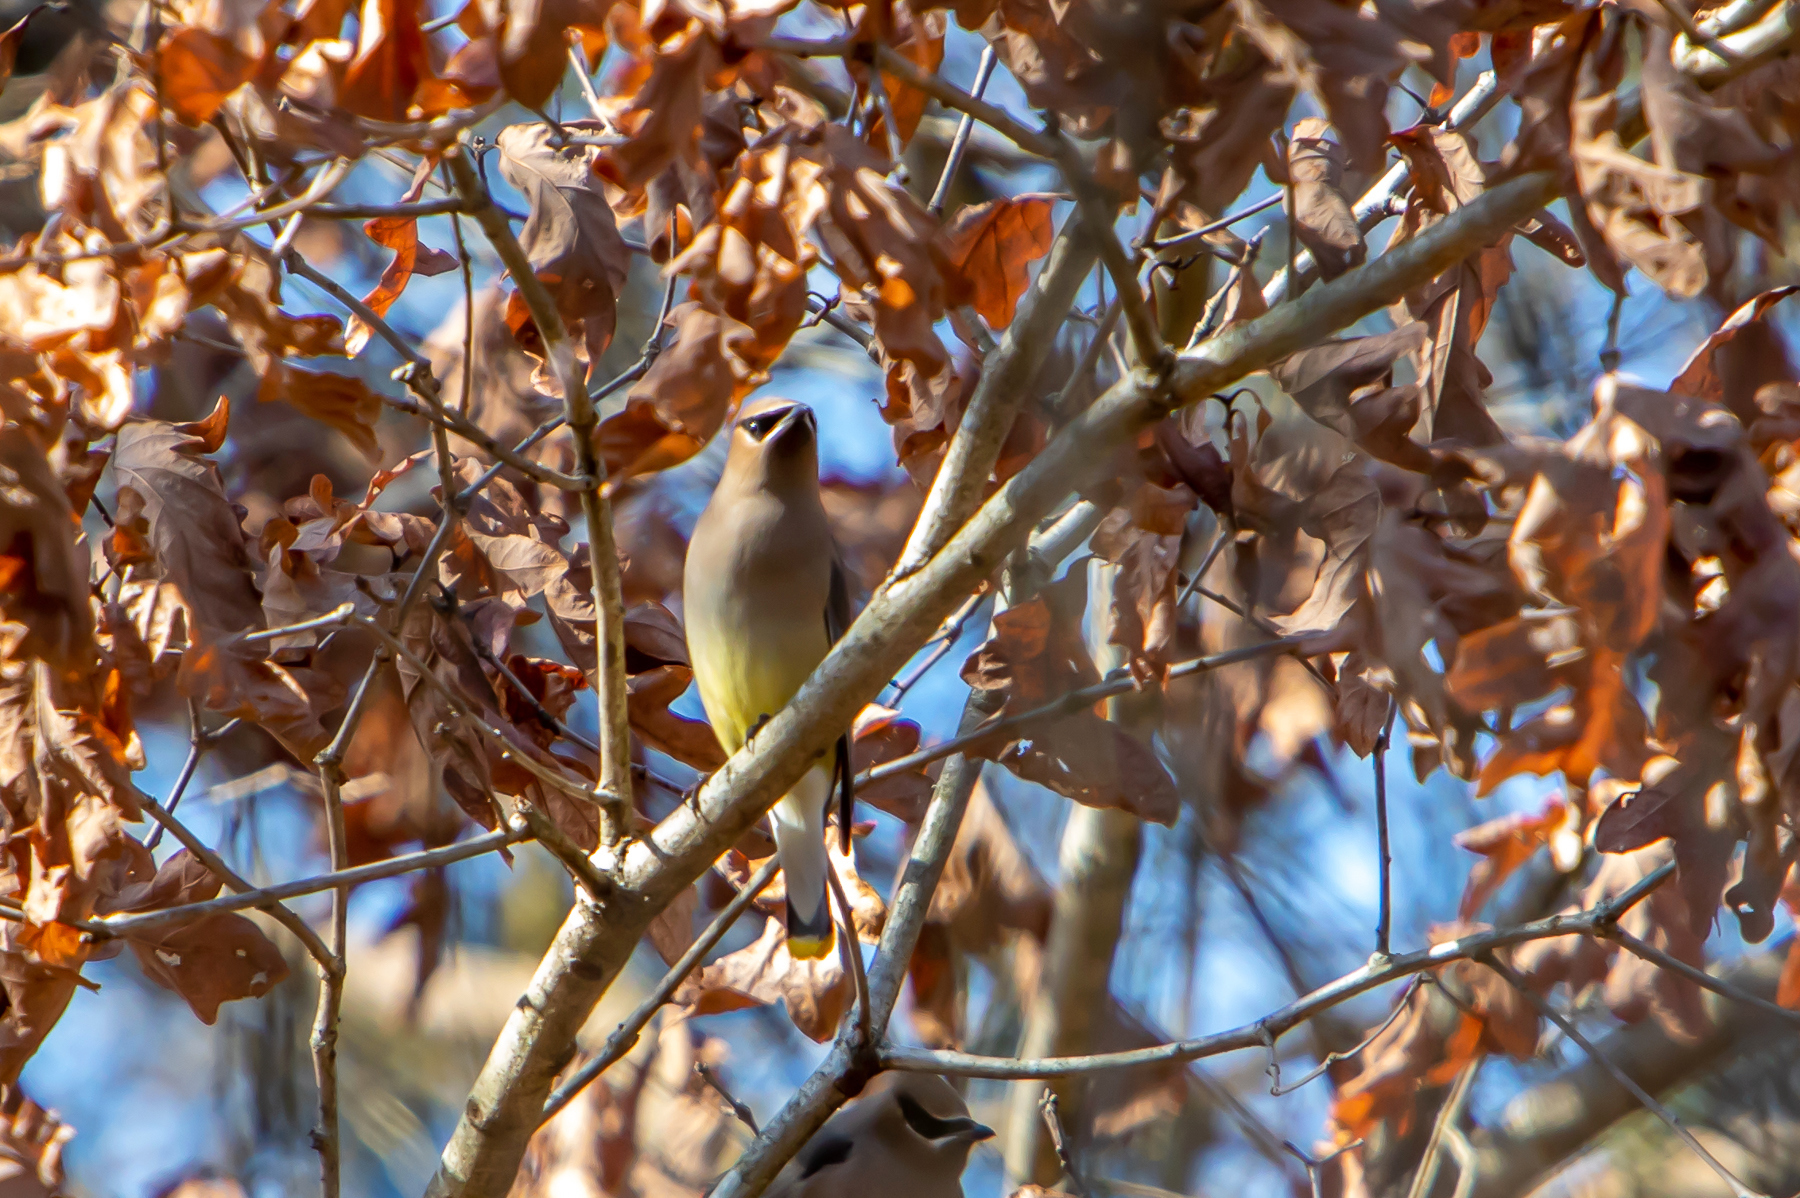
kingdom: Animalia
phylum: Chordata
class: Aves
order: Passeriformes
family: Bombycillidae
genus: Bombycilla
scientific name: Bombycilla cedrorum
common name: Cedar waxwing
